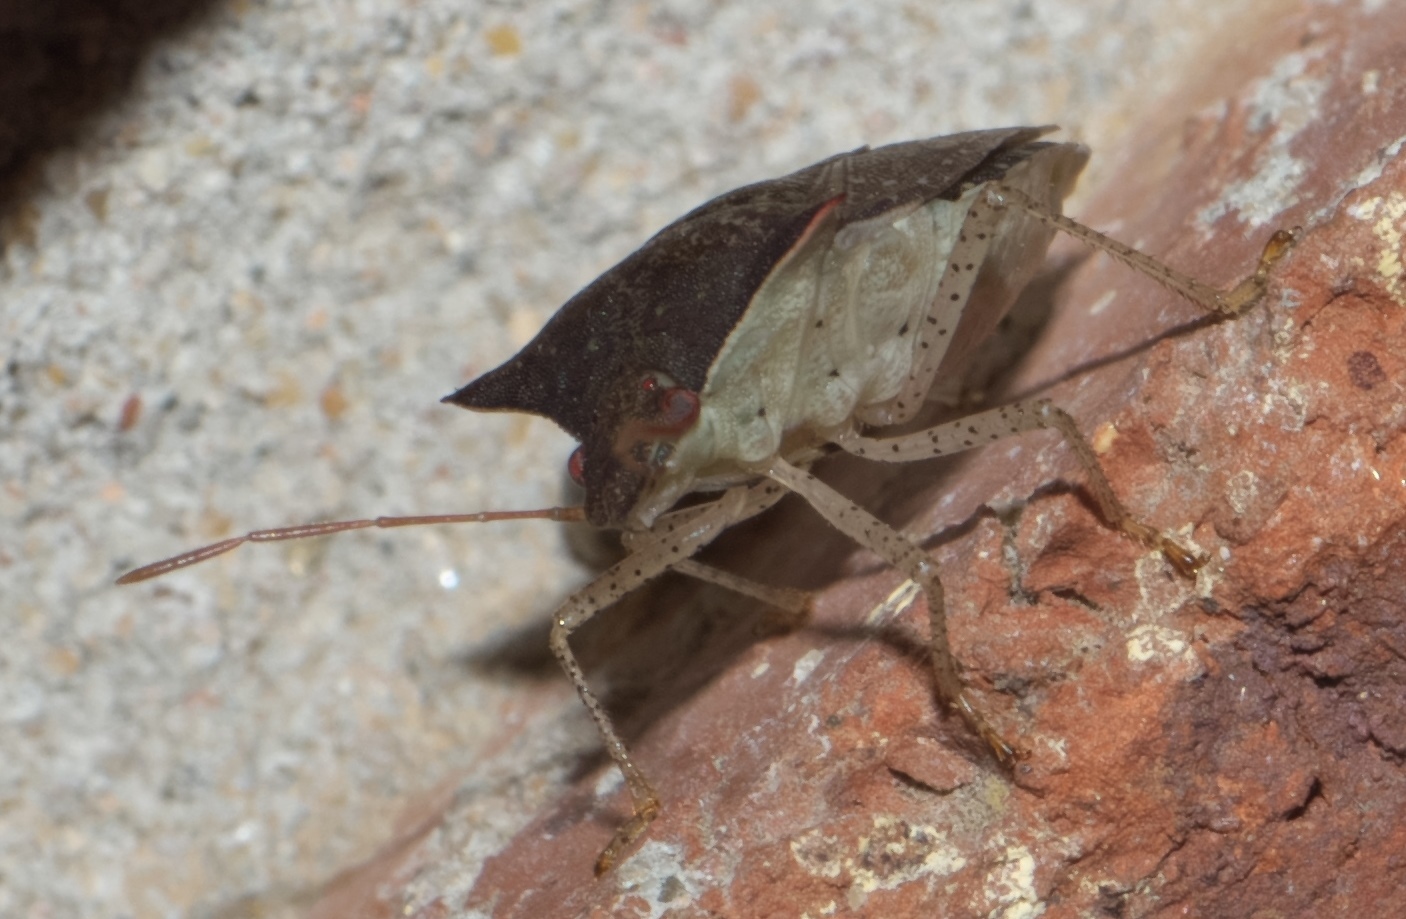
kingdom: Animalia
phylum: Arthropoda
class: Insecta
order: Hemiptera
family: Pentatomidae
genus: Euschistus
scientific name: Euschistus tristigmus
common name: Dusky stink bug
